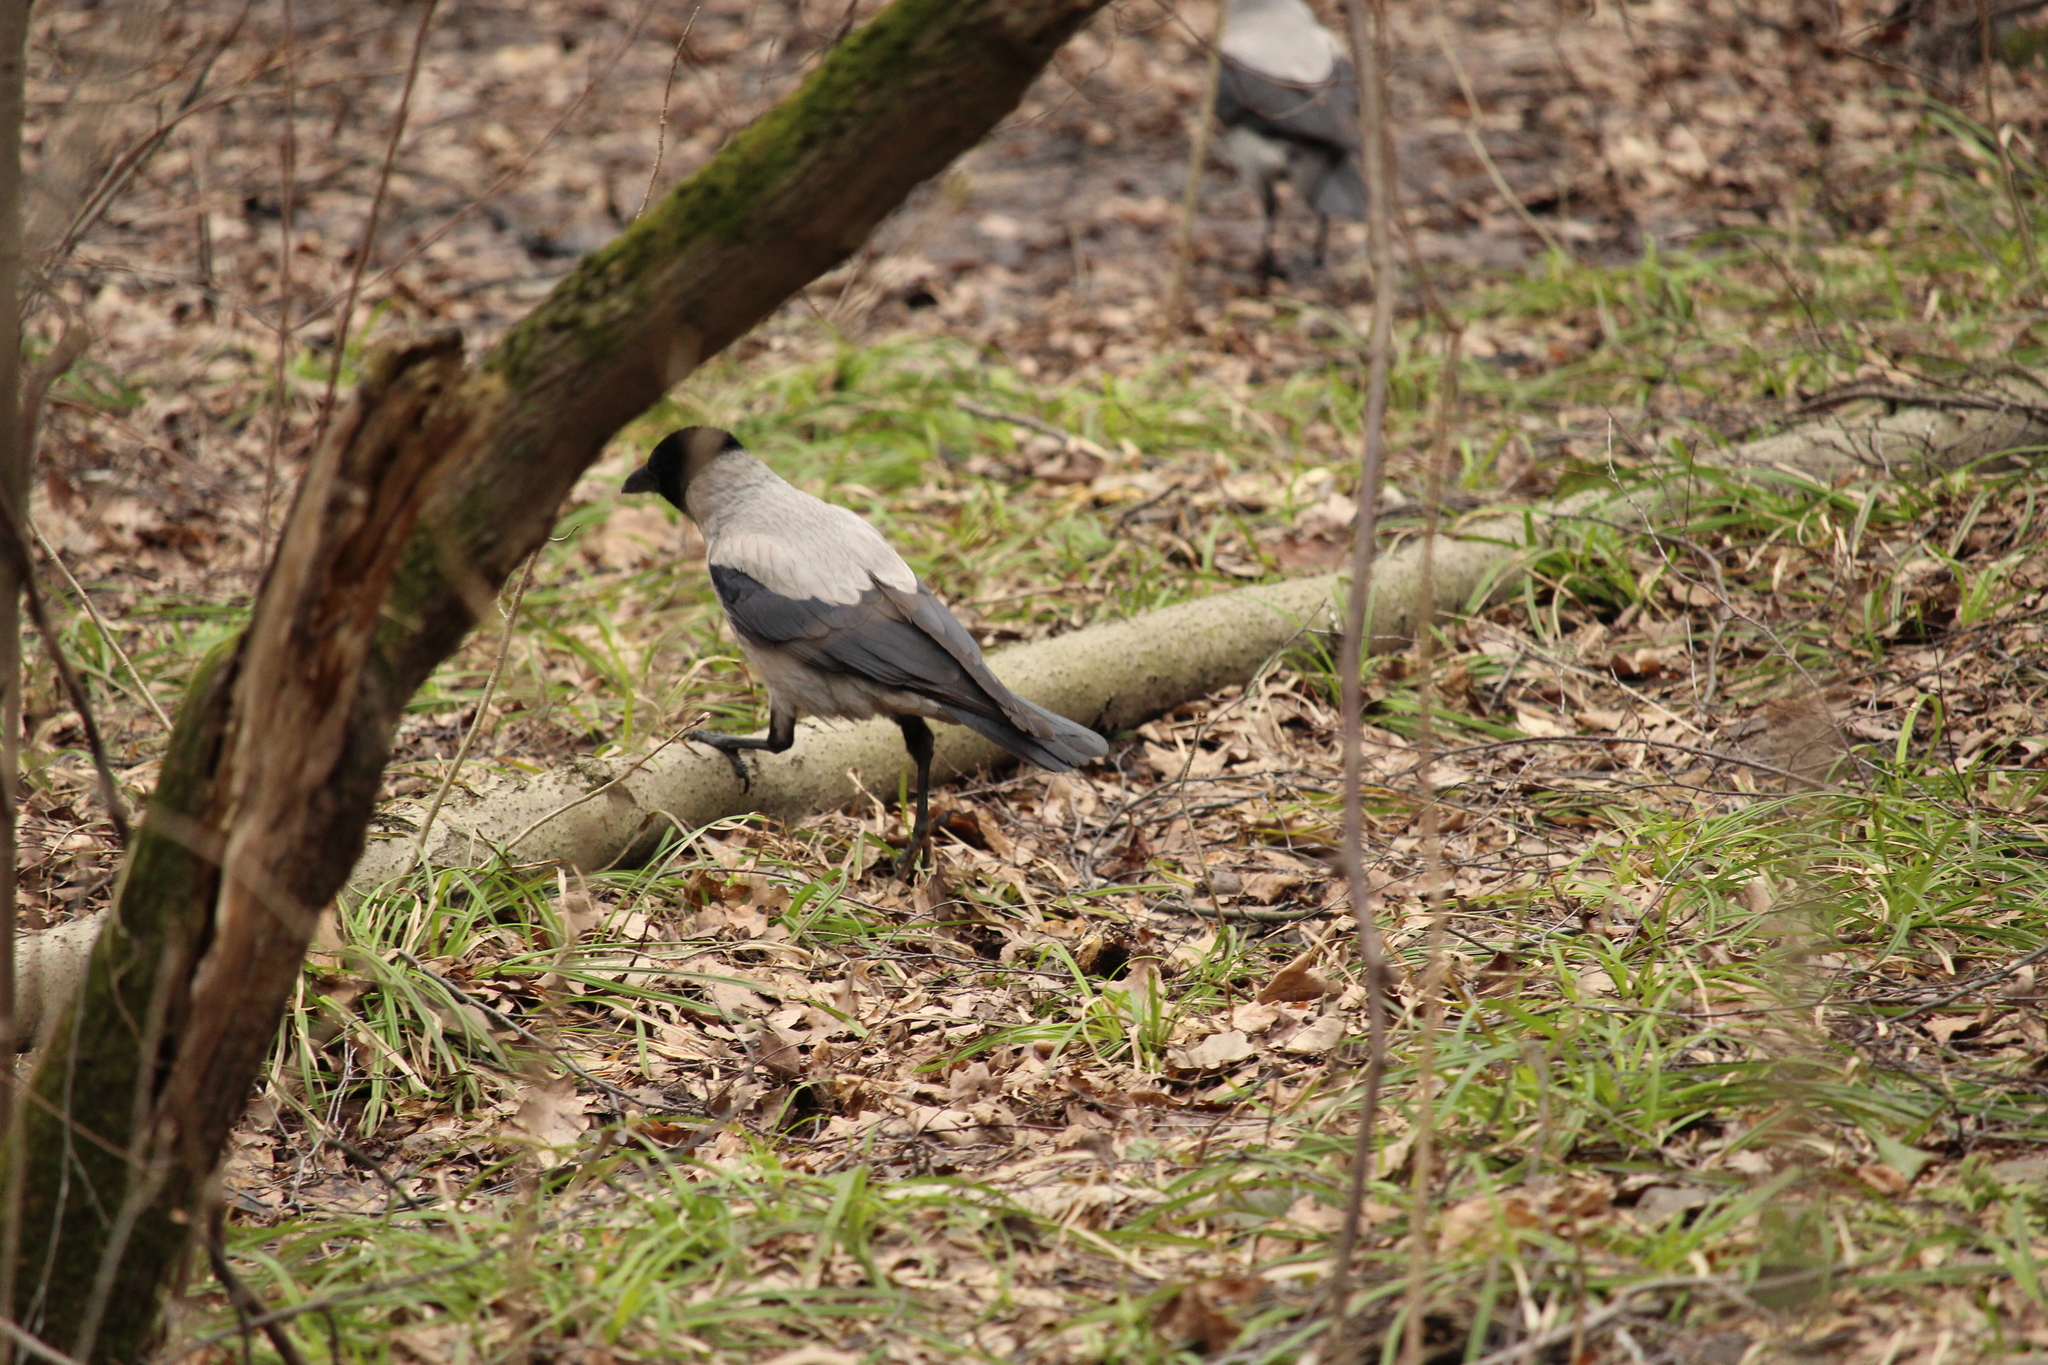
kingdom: Animalia
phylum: Chordata
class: Aves
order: Passeriformes
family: Corvidae
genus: Corvus
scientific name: Corvus cornix
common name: Hooded crow
